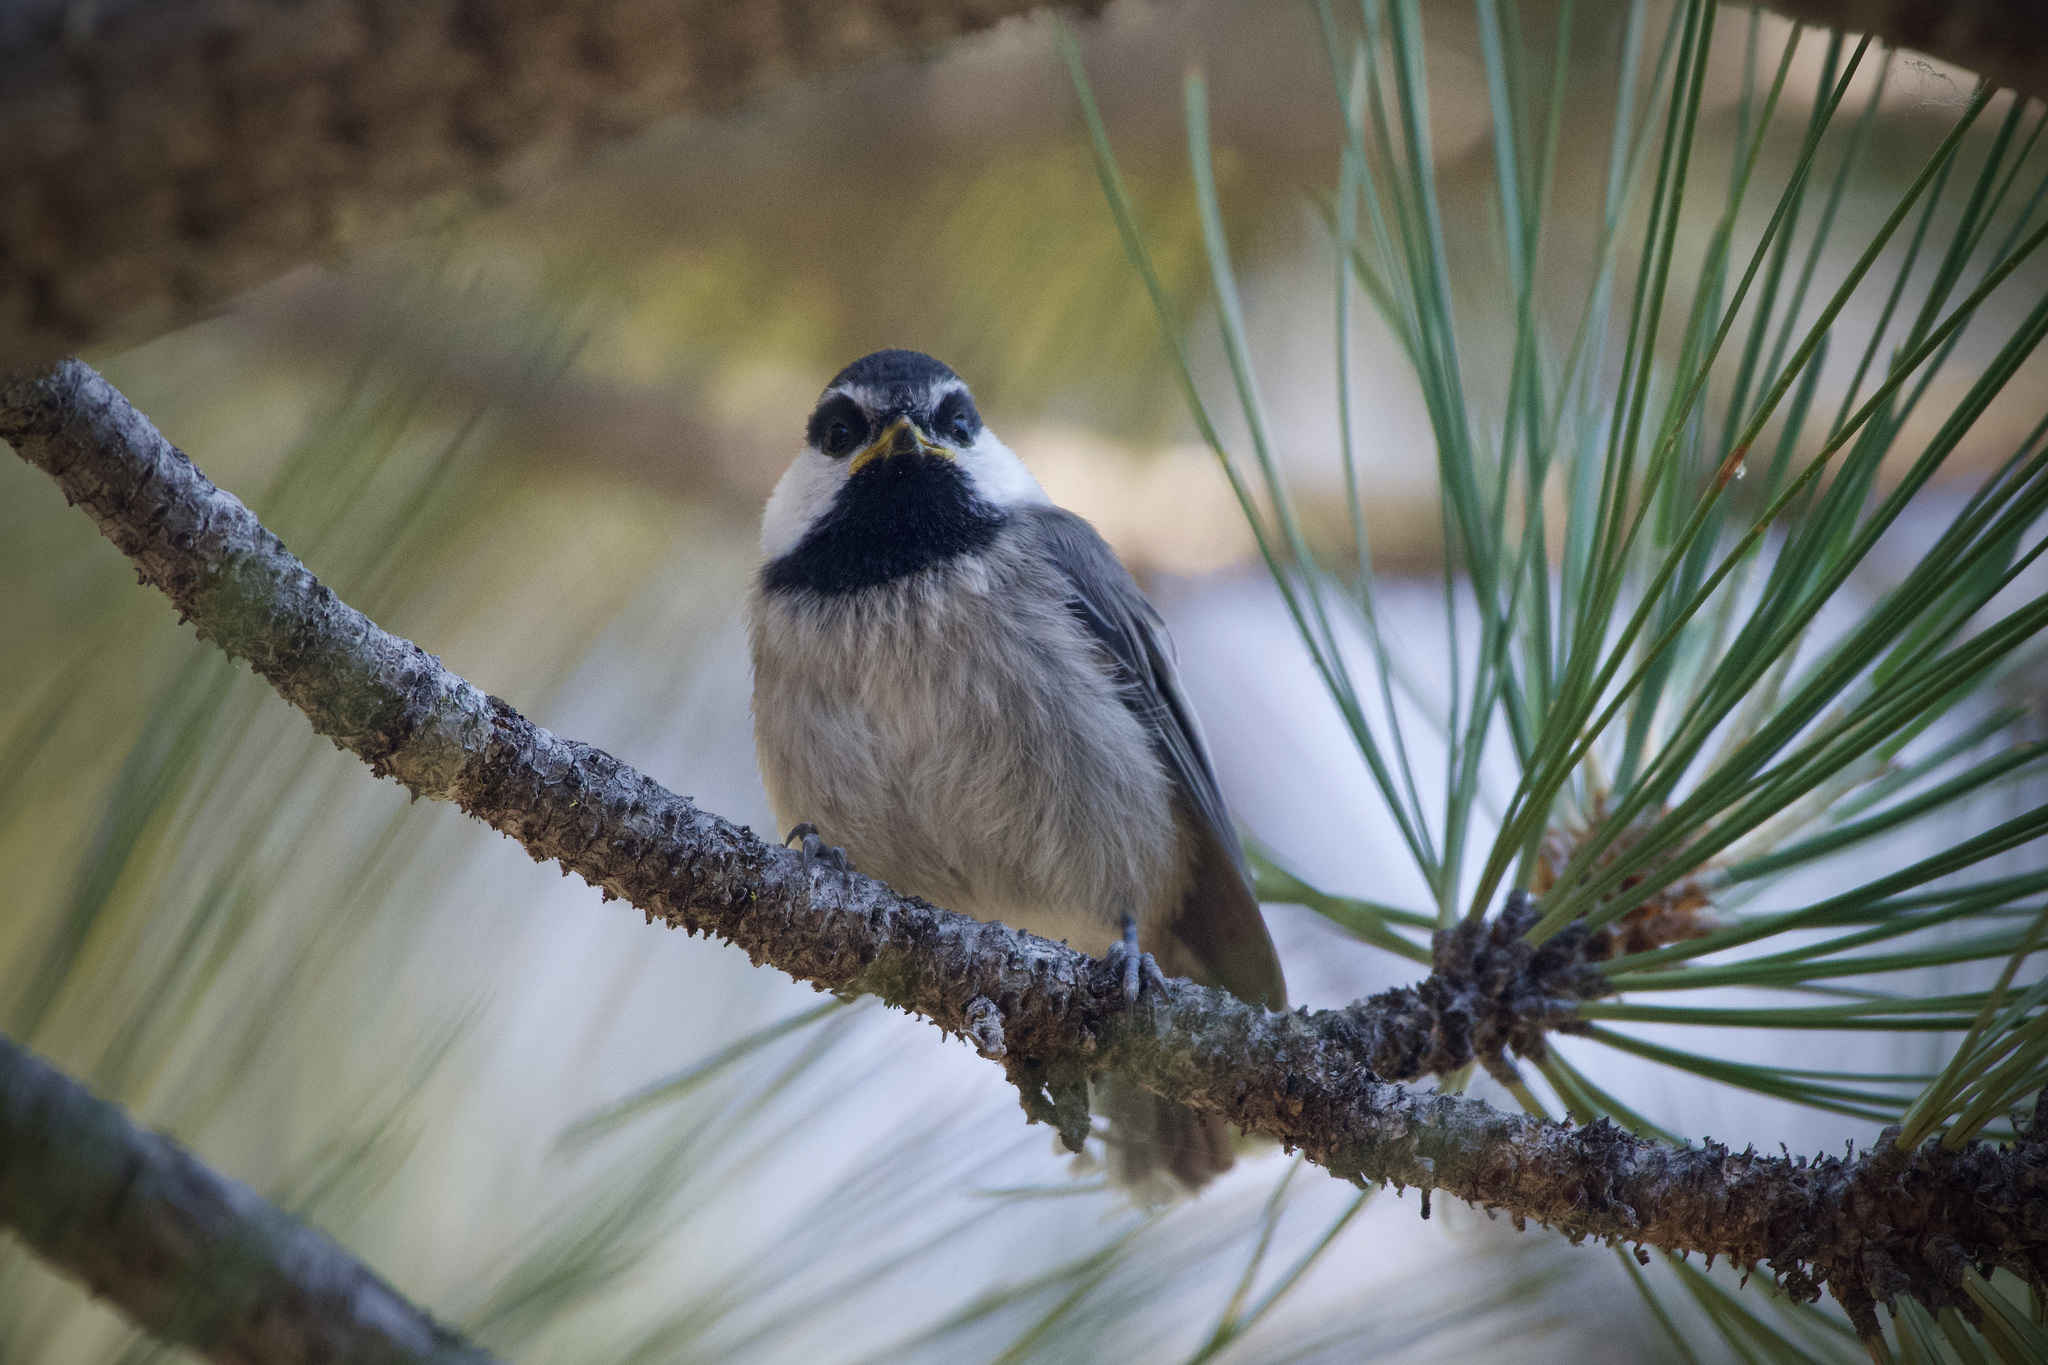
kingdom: Animalia
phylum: Chordata
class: Aves
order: Passeriformes
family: Paridae
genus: Poecile
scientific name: Poecile gambeli
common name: Mountain chickadee
